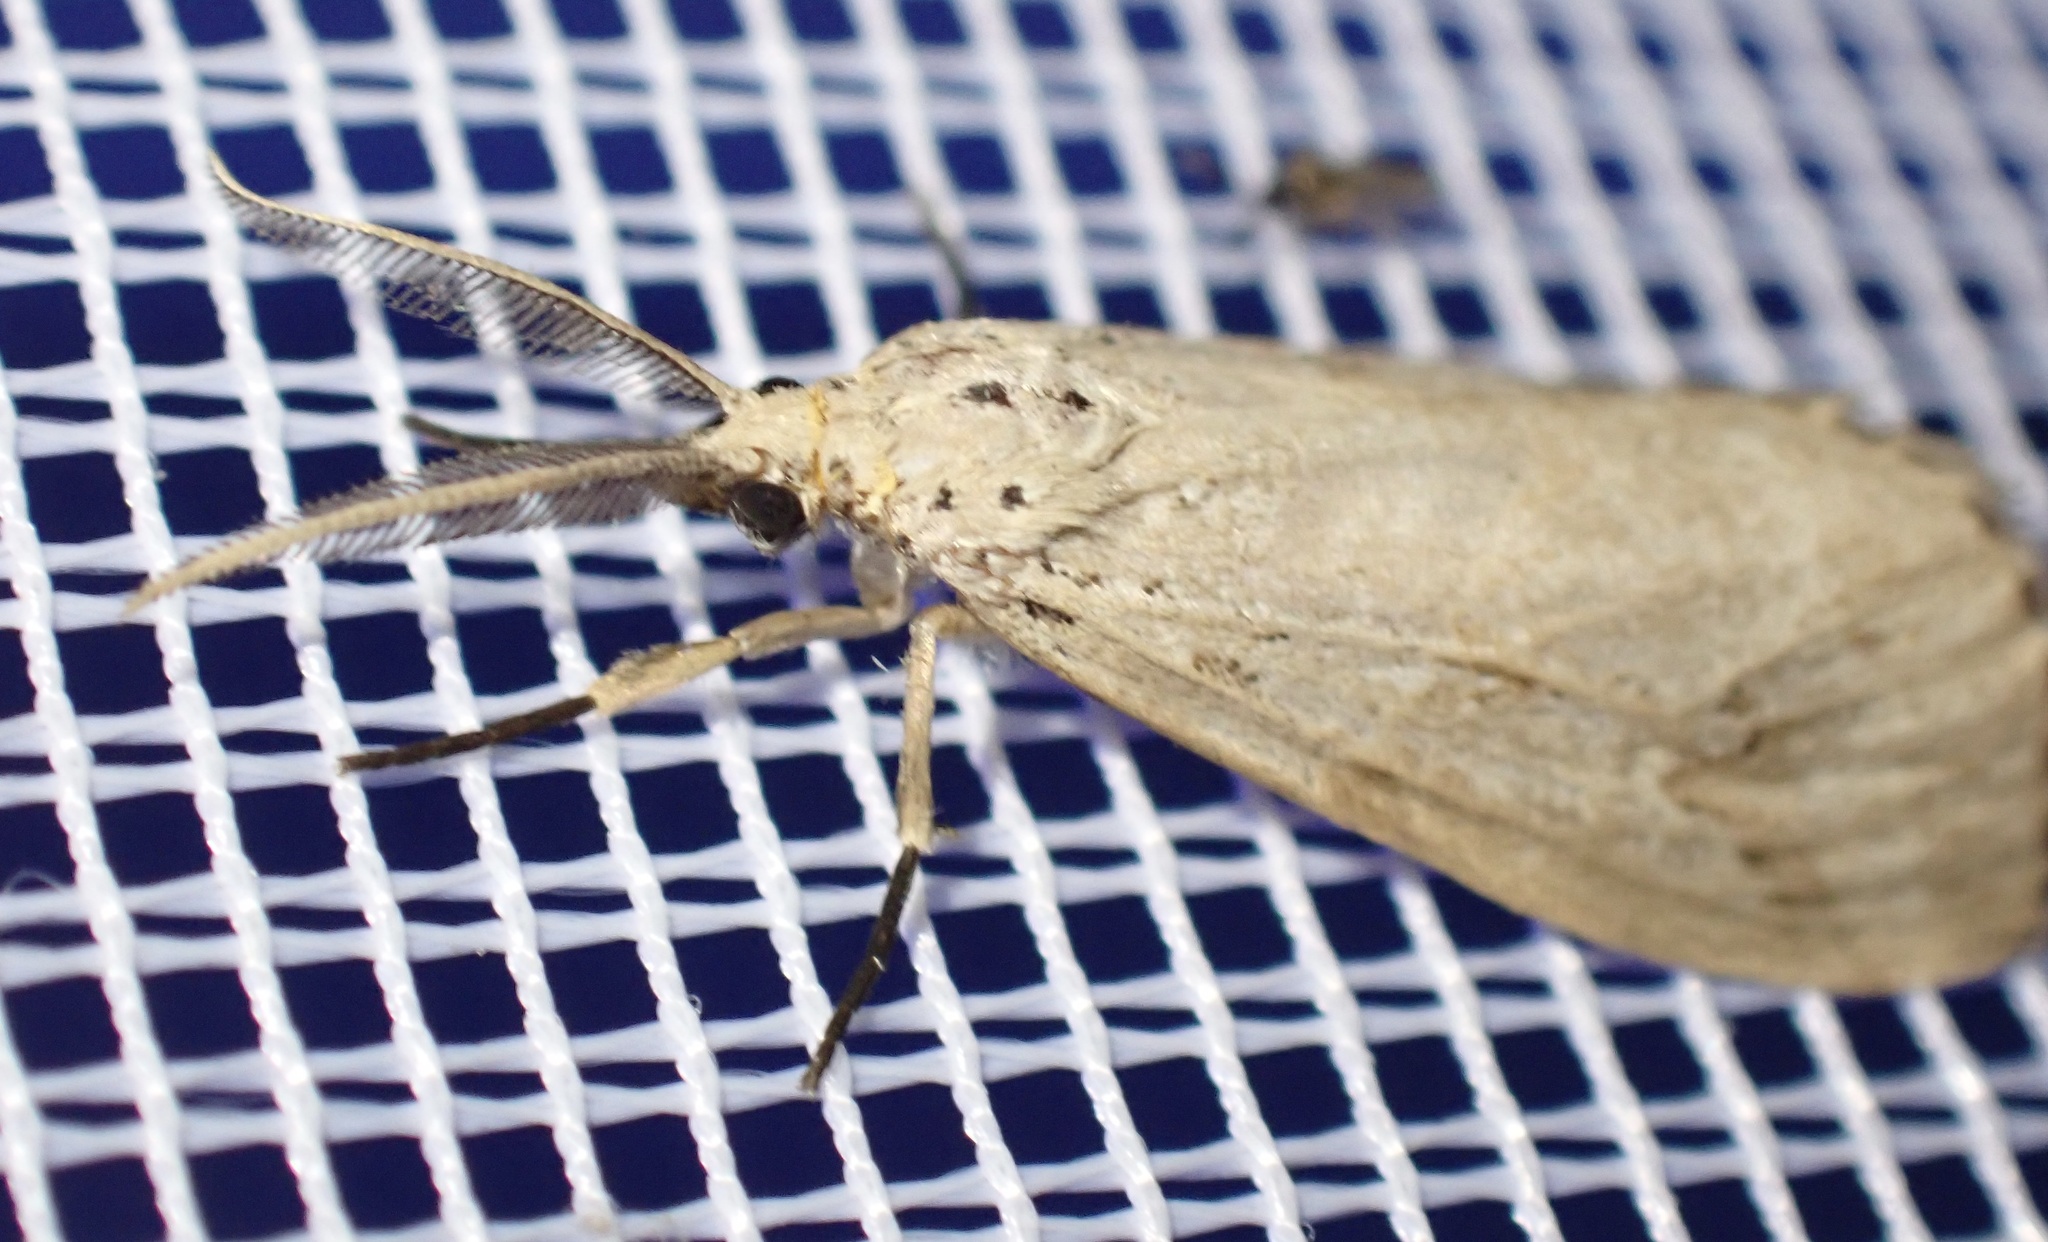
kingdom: Animalia
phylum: Arthropoda
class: Insecta
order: Lepidoptera
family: Erebidae
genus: Galtara
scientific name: Galtara rostrata
